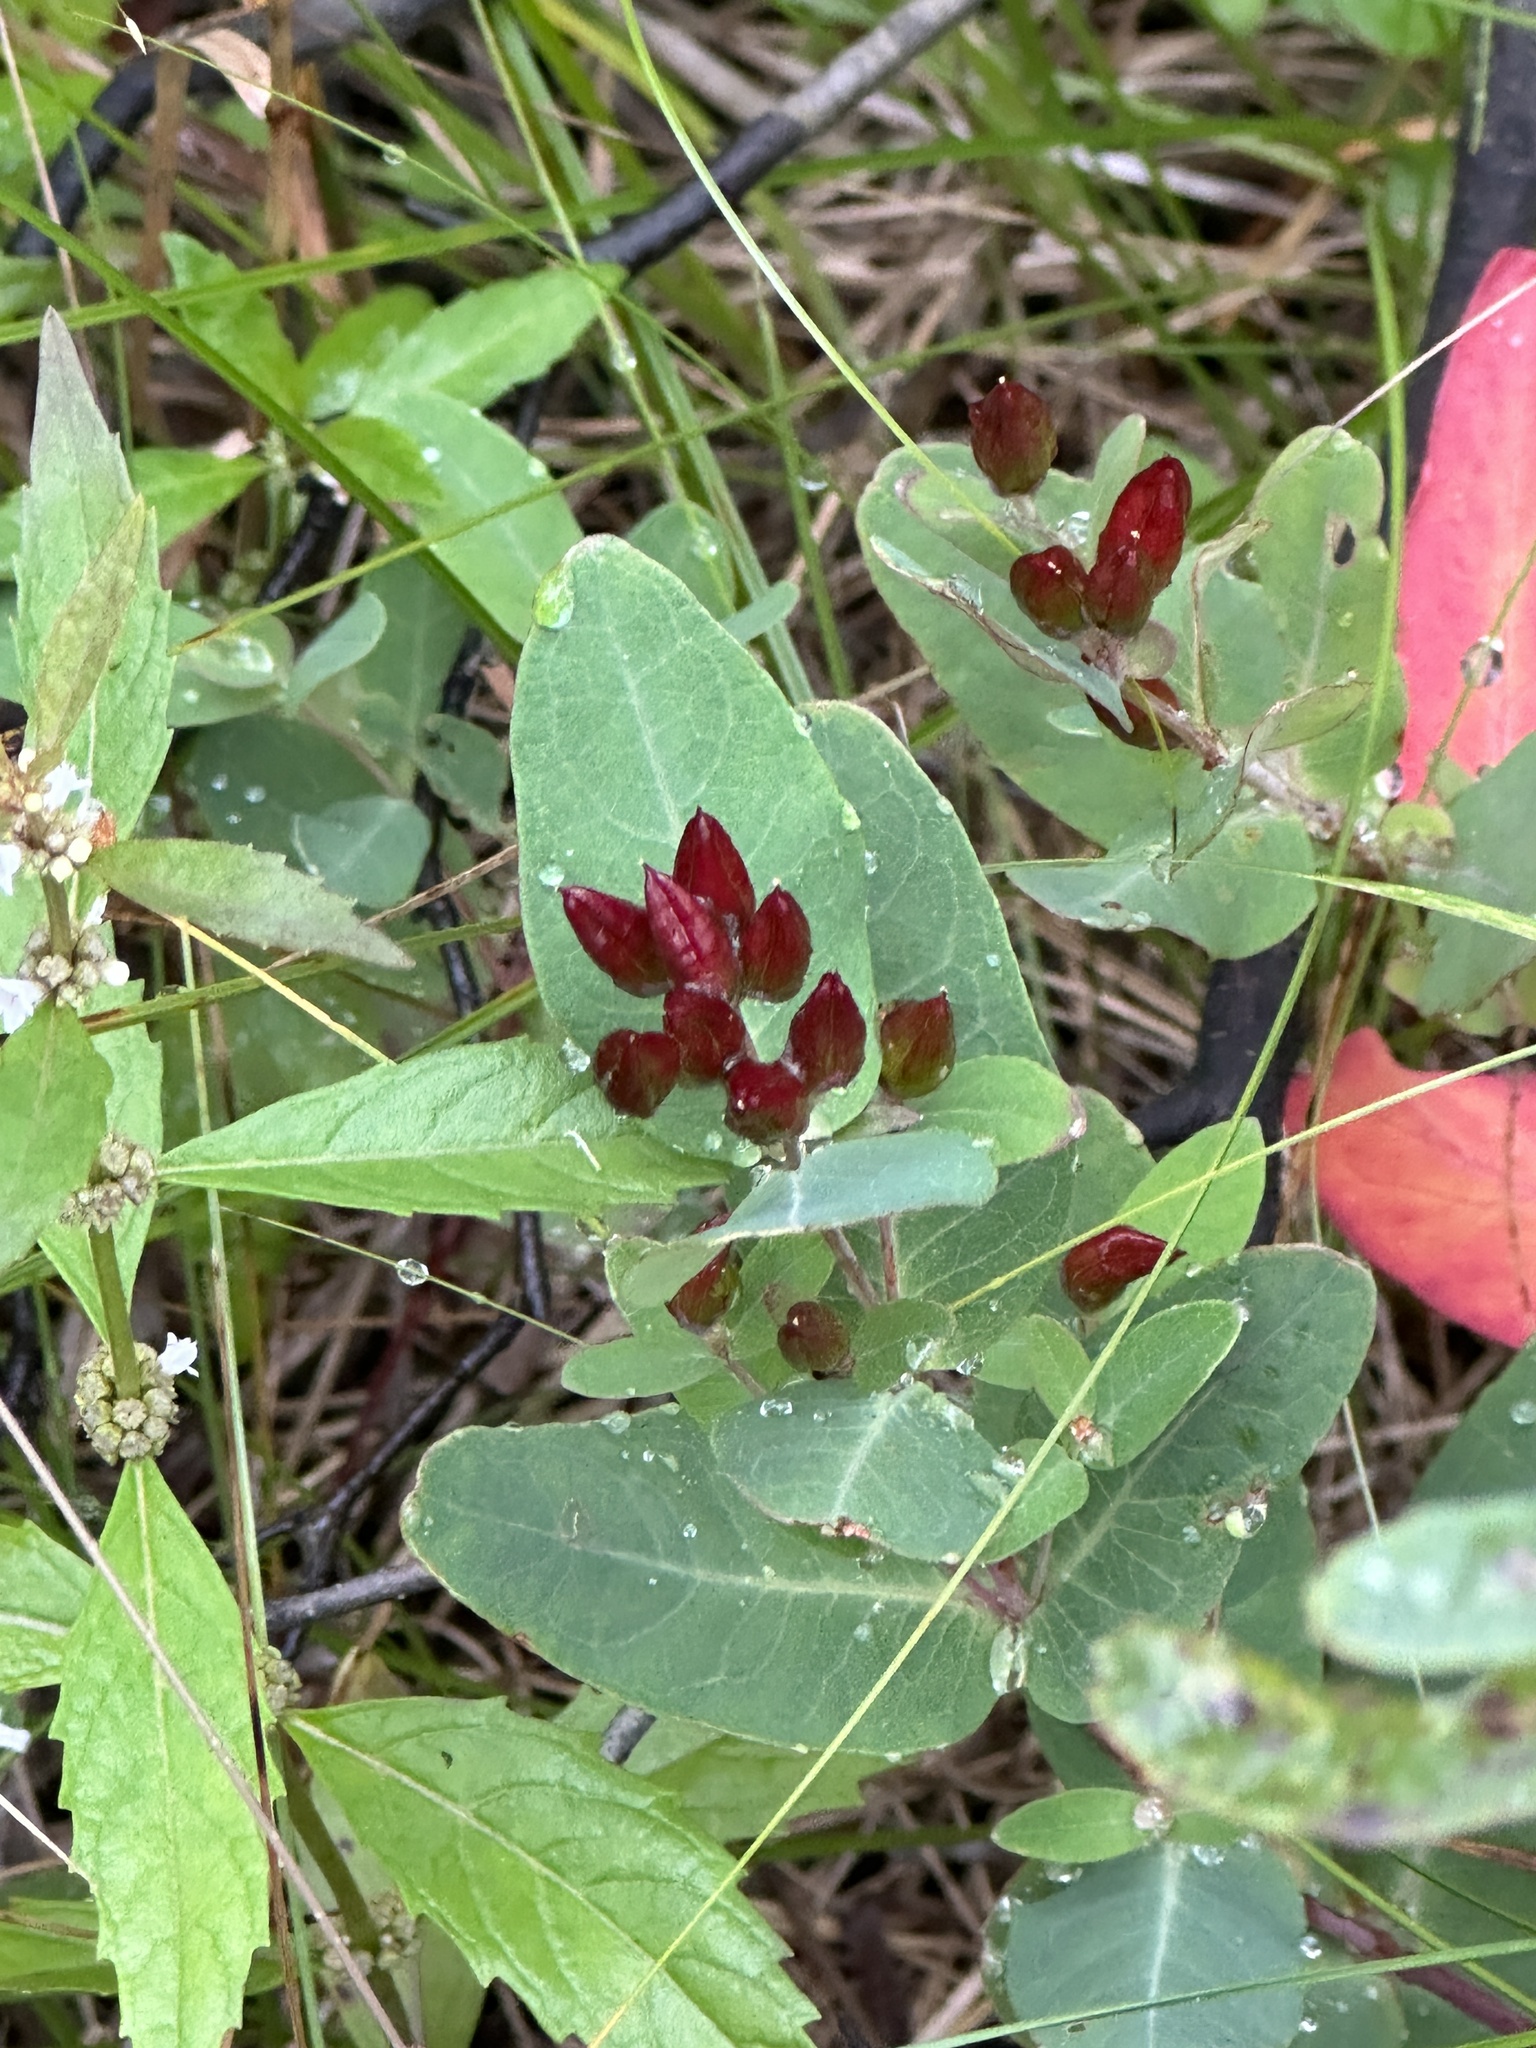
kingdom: Plantae
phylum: Tracheophyta
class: Magnoliopsida
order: Malpighiales
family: Hypericaceae
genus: Triadenum
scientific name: Triadenum fraseri
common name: Fraser's marsh st. johnswort
